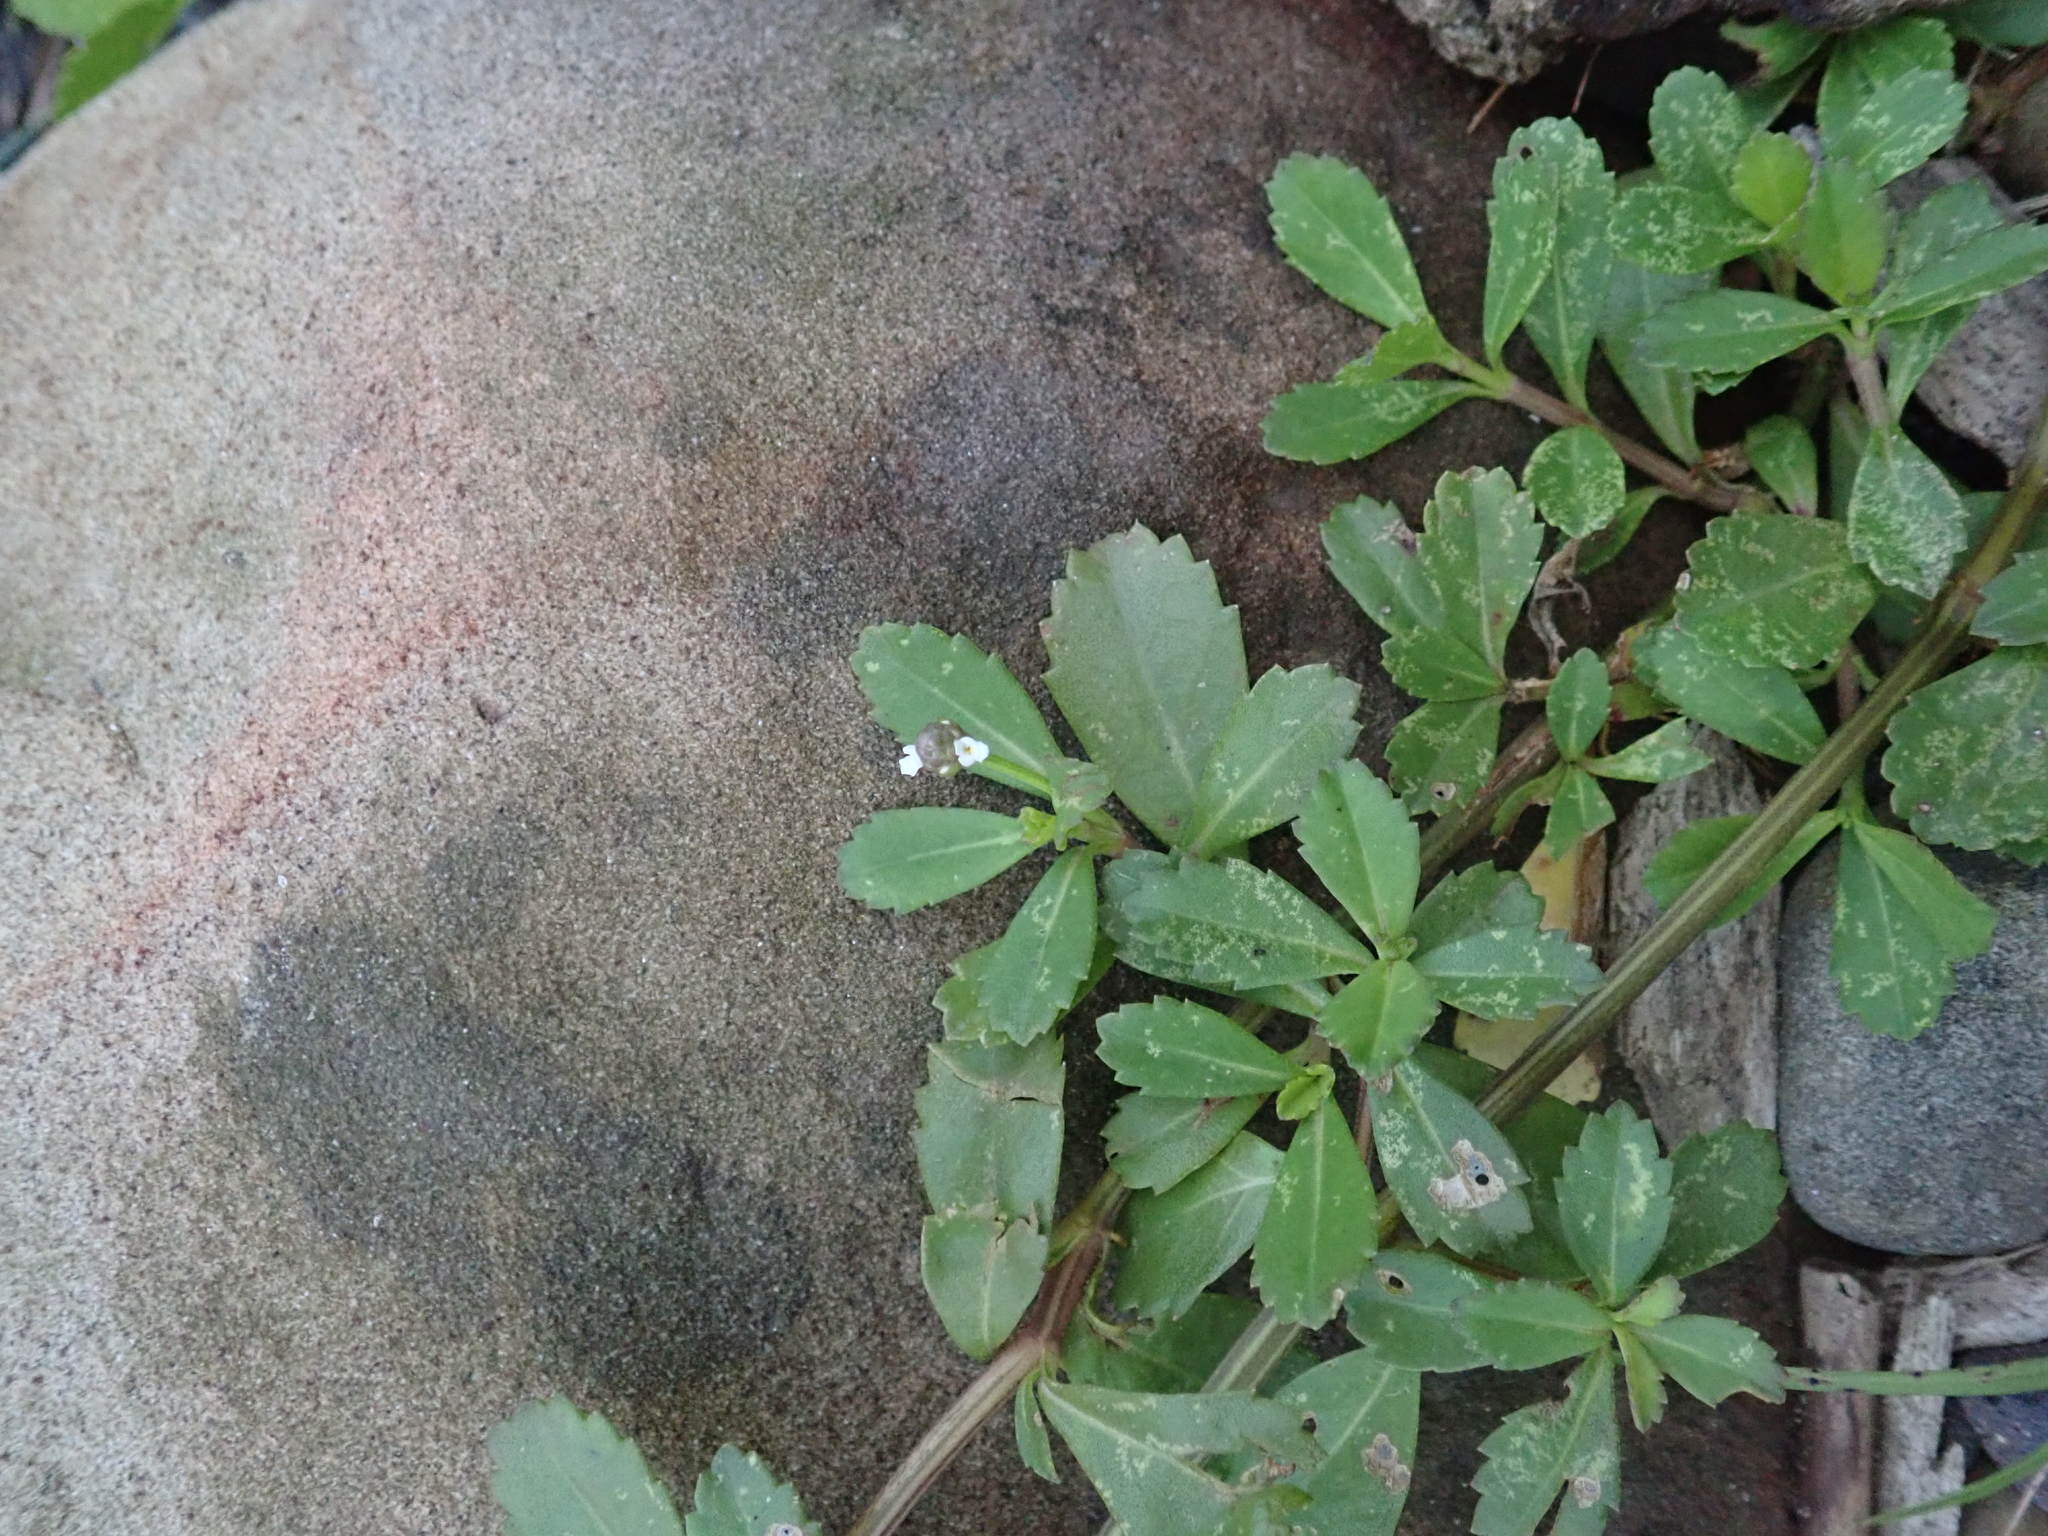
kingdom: Plantae
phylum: Tracheophyta
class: Magnoliopsida
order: Lamiales
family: Verbenaceae
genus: Phyla
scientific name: Phyla nodiflora
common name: Frogfruit
